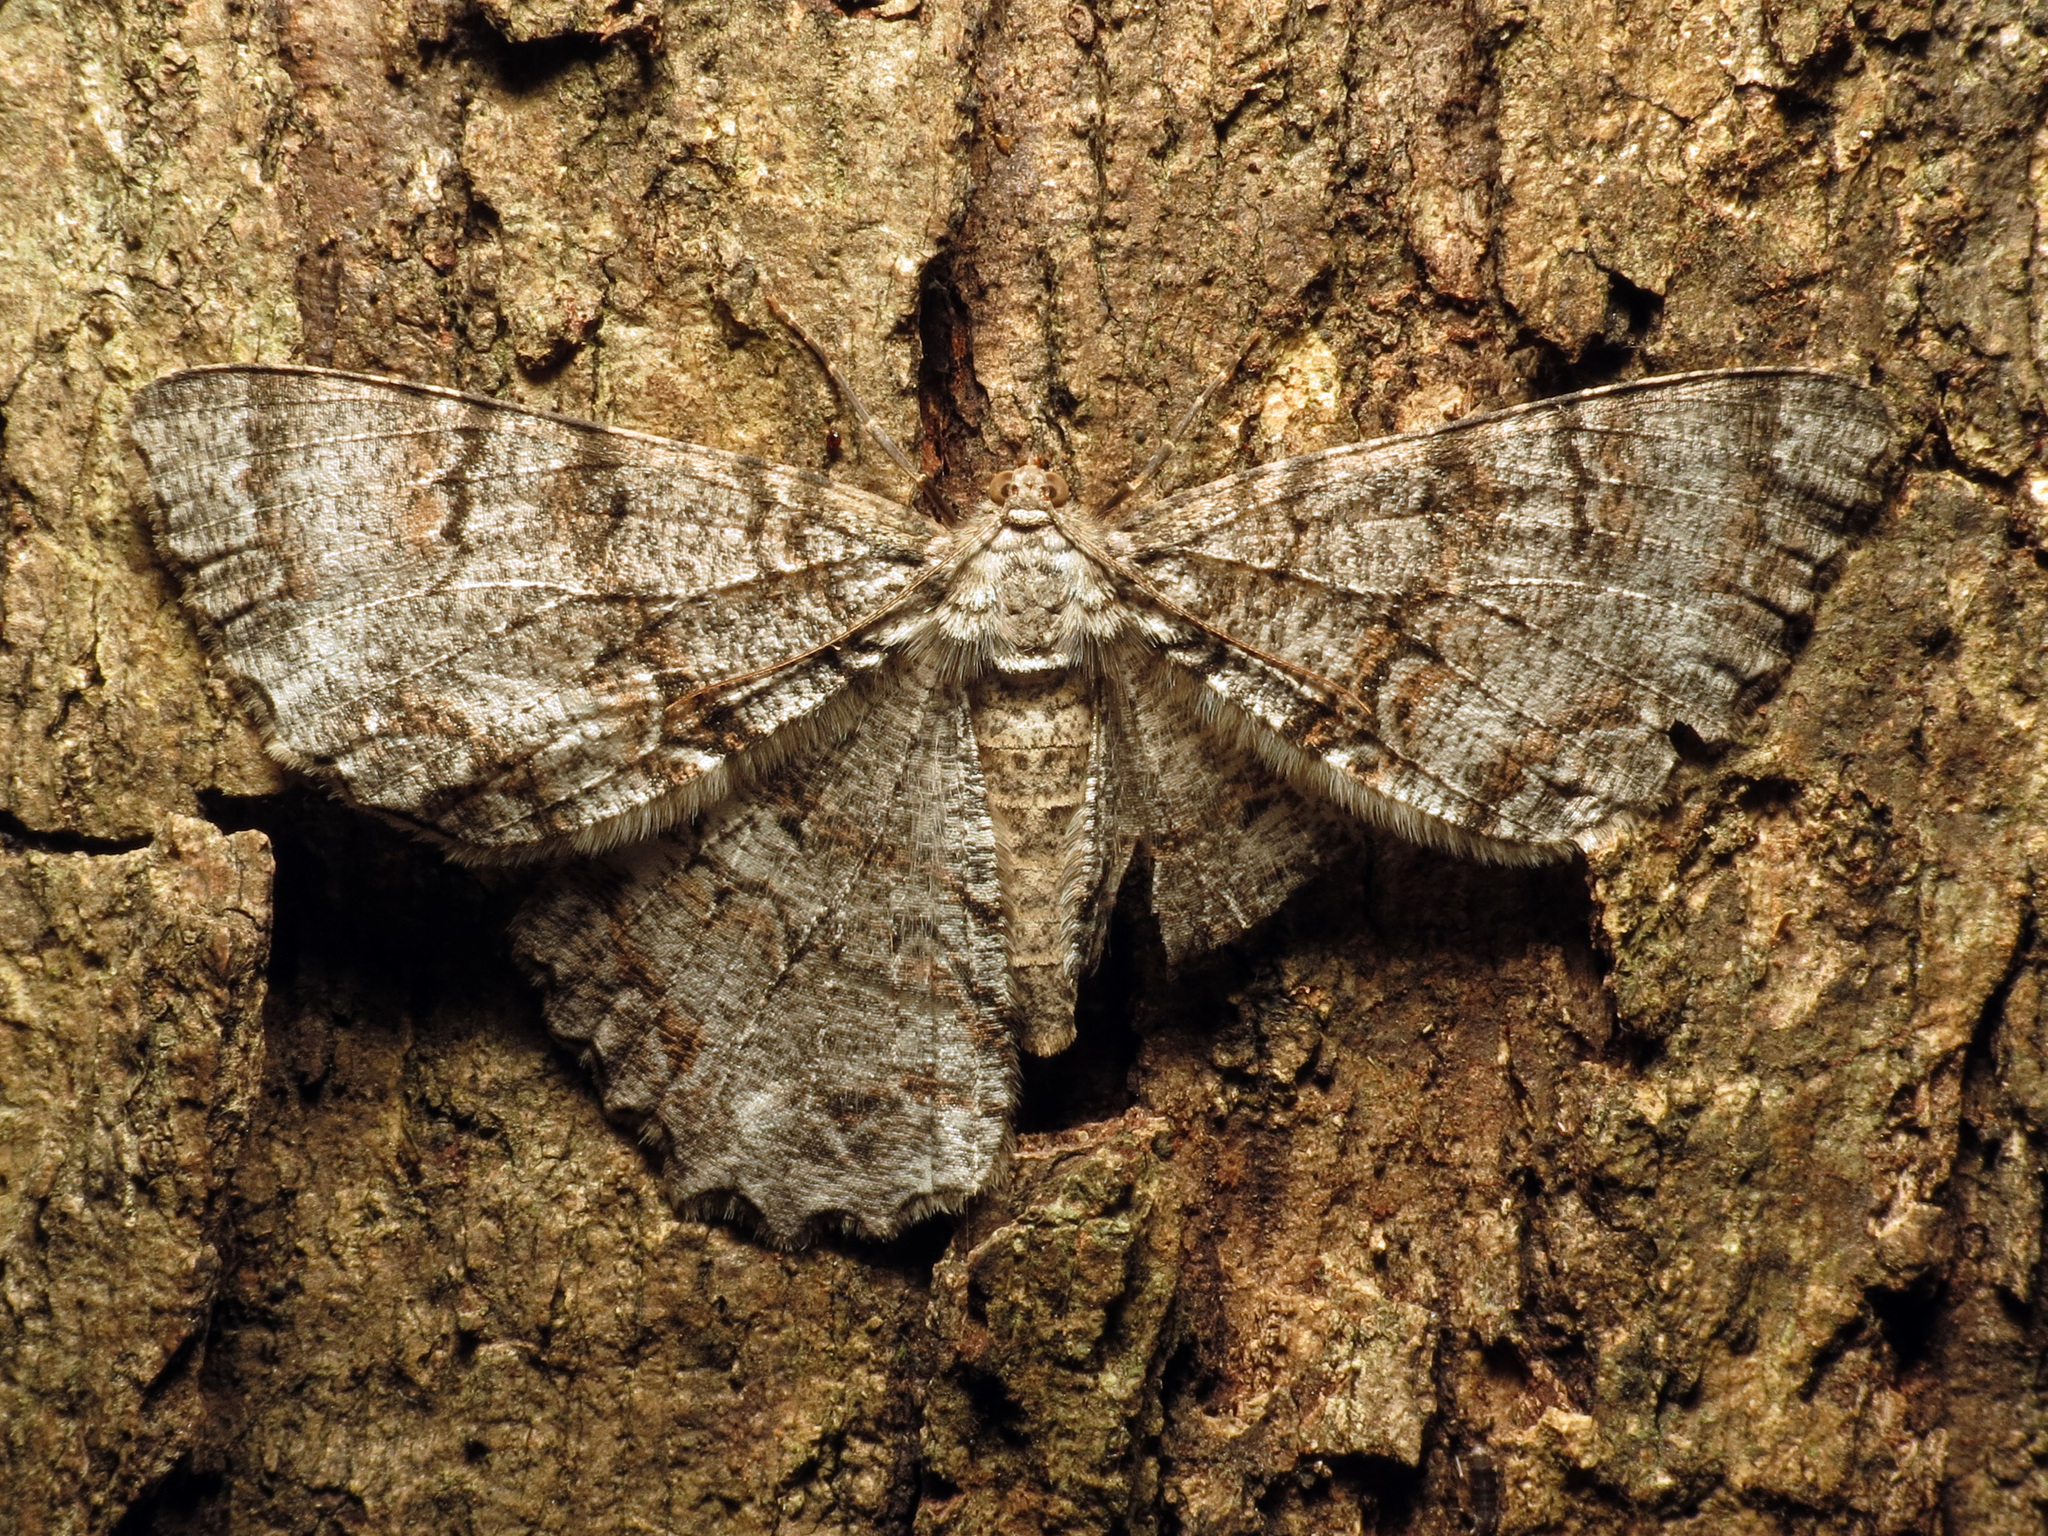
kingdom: Animalia
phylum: Arthropoda
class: Insecta
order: Lepidoptera
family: Geometridae
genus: Epimecis
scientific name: Epimecis hortaria
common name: Tulip-tree beauty
